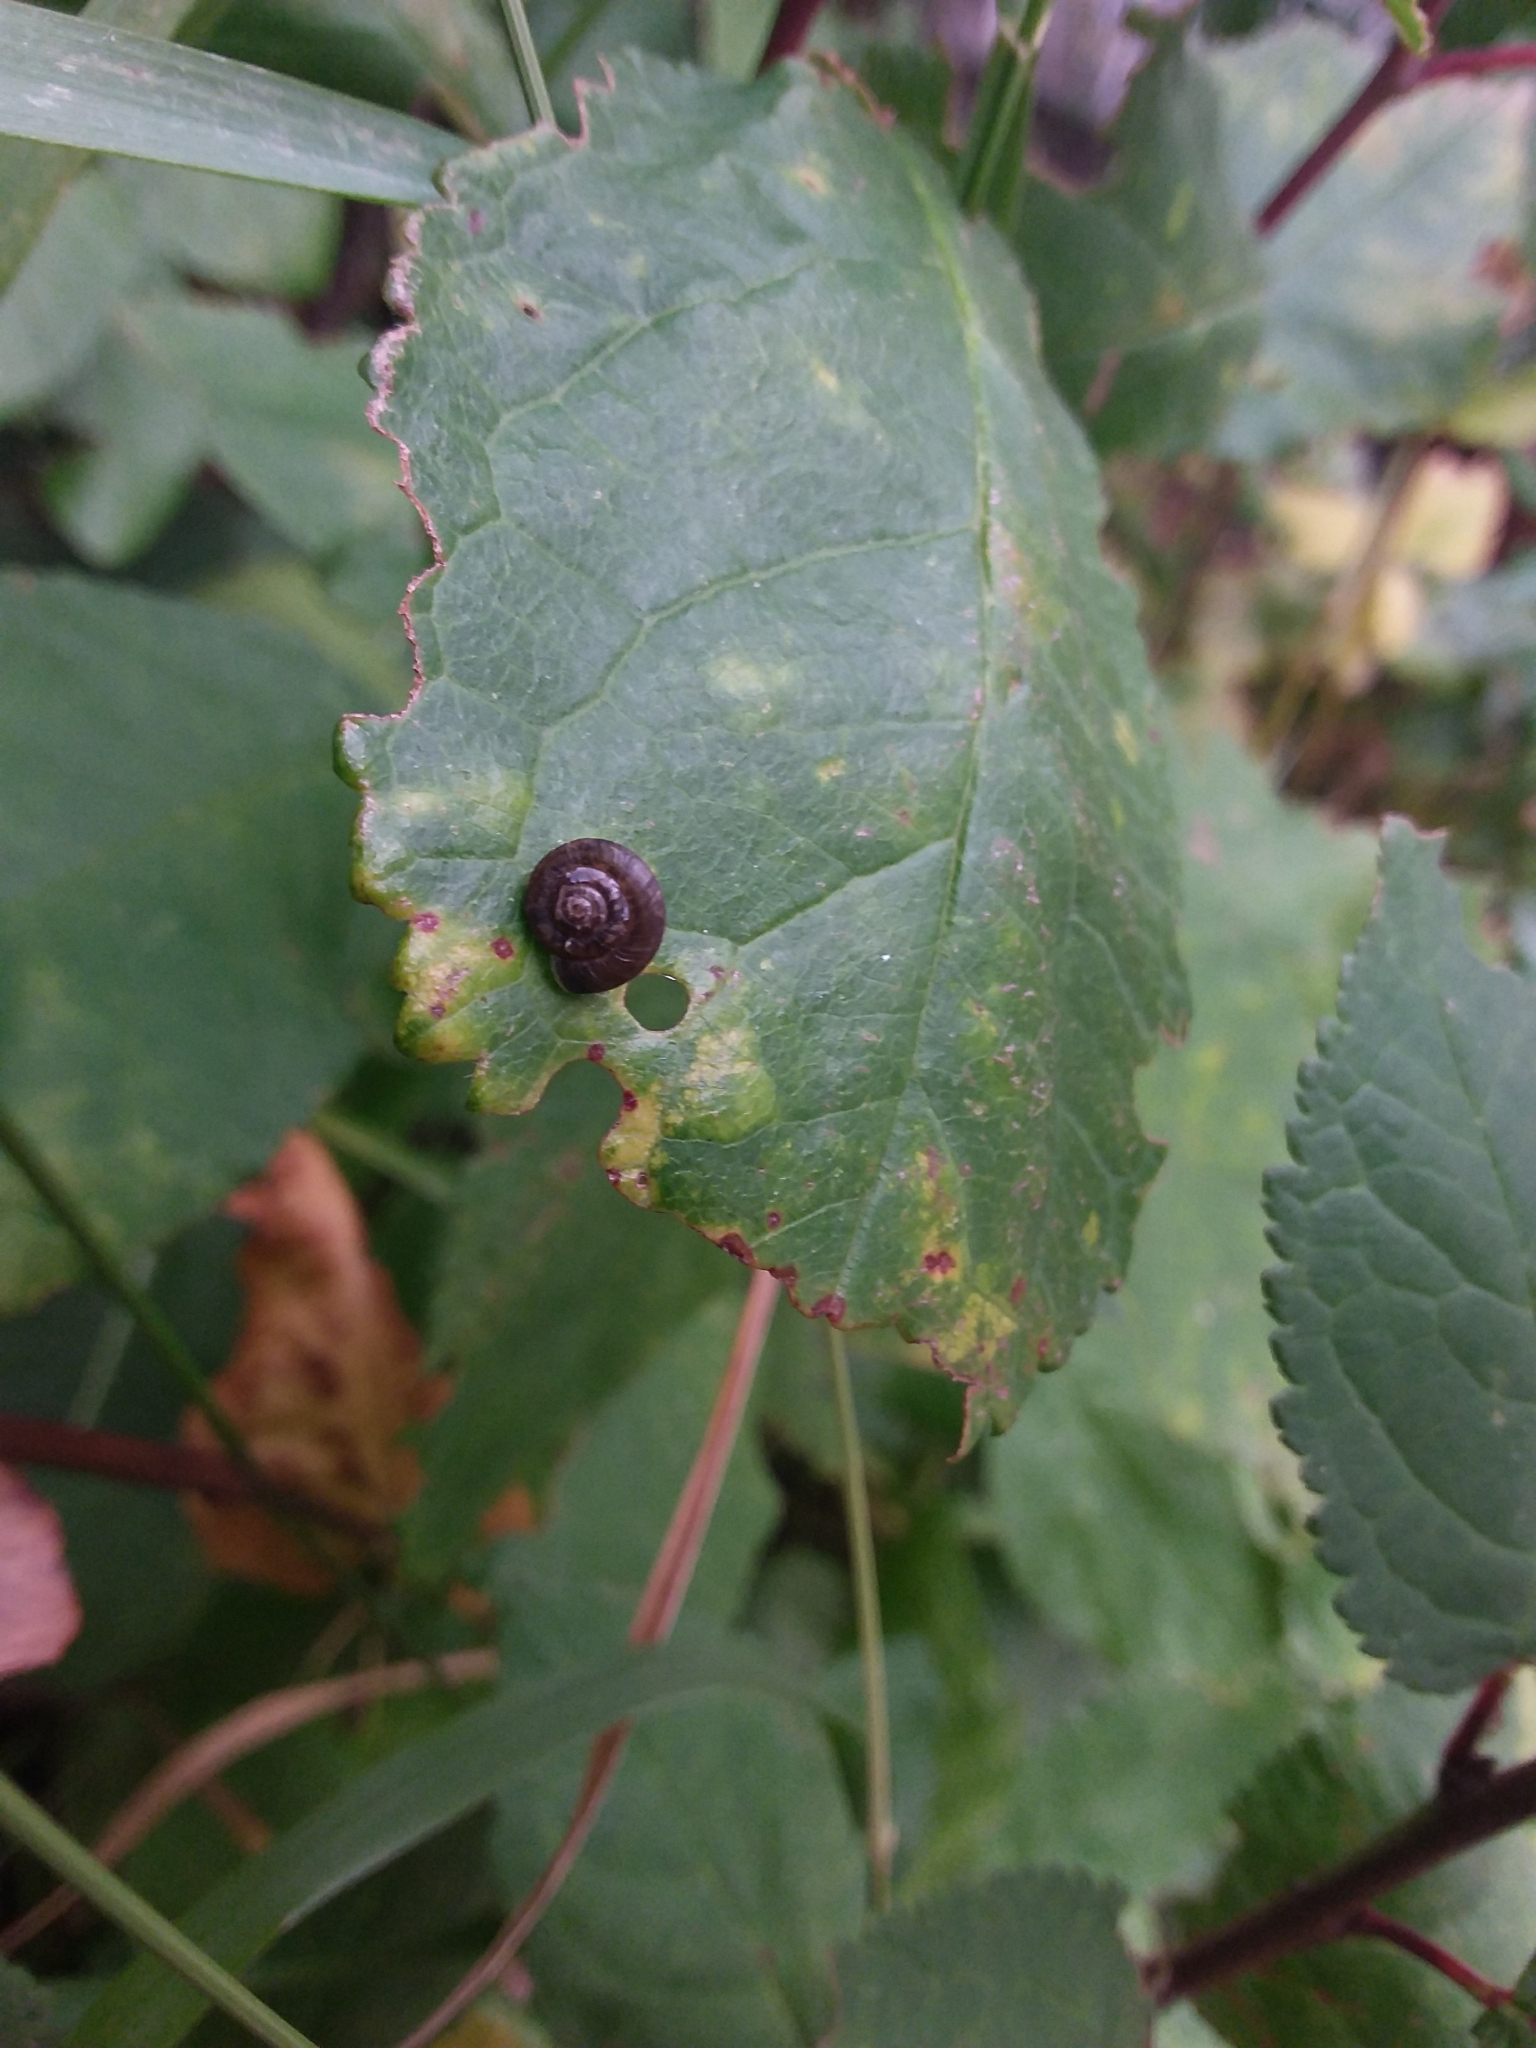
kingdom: Animalia
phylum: Mollusca
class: Gastropoda
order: Stylommatophora
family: Hygromiidae
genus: Trochulus
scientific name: Trochulus striolatus
